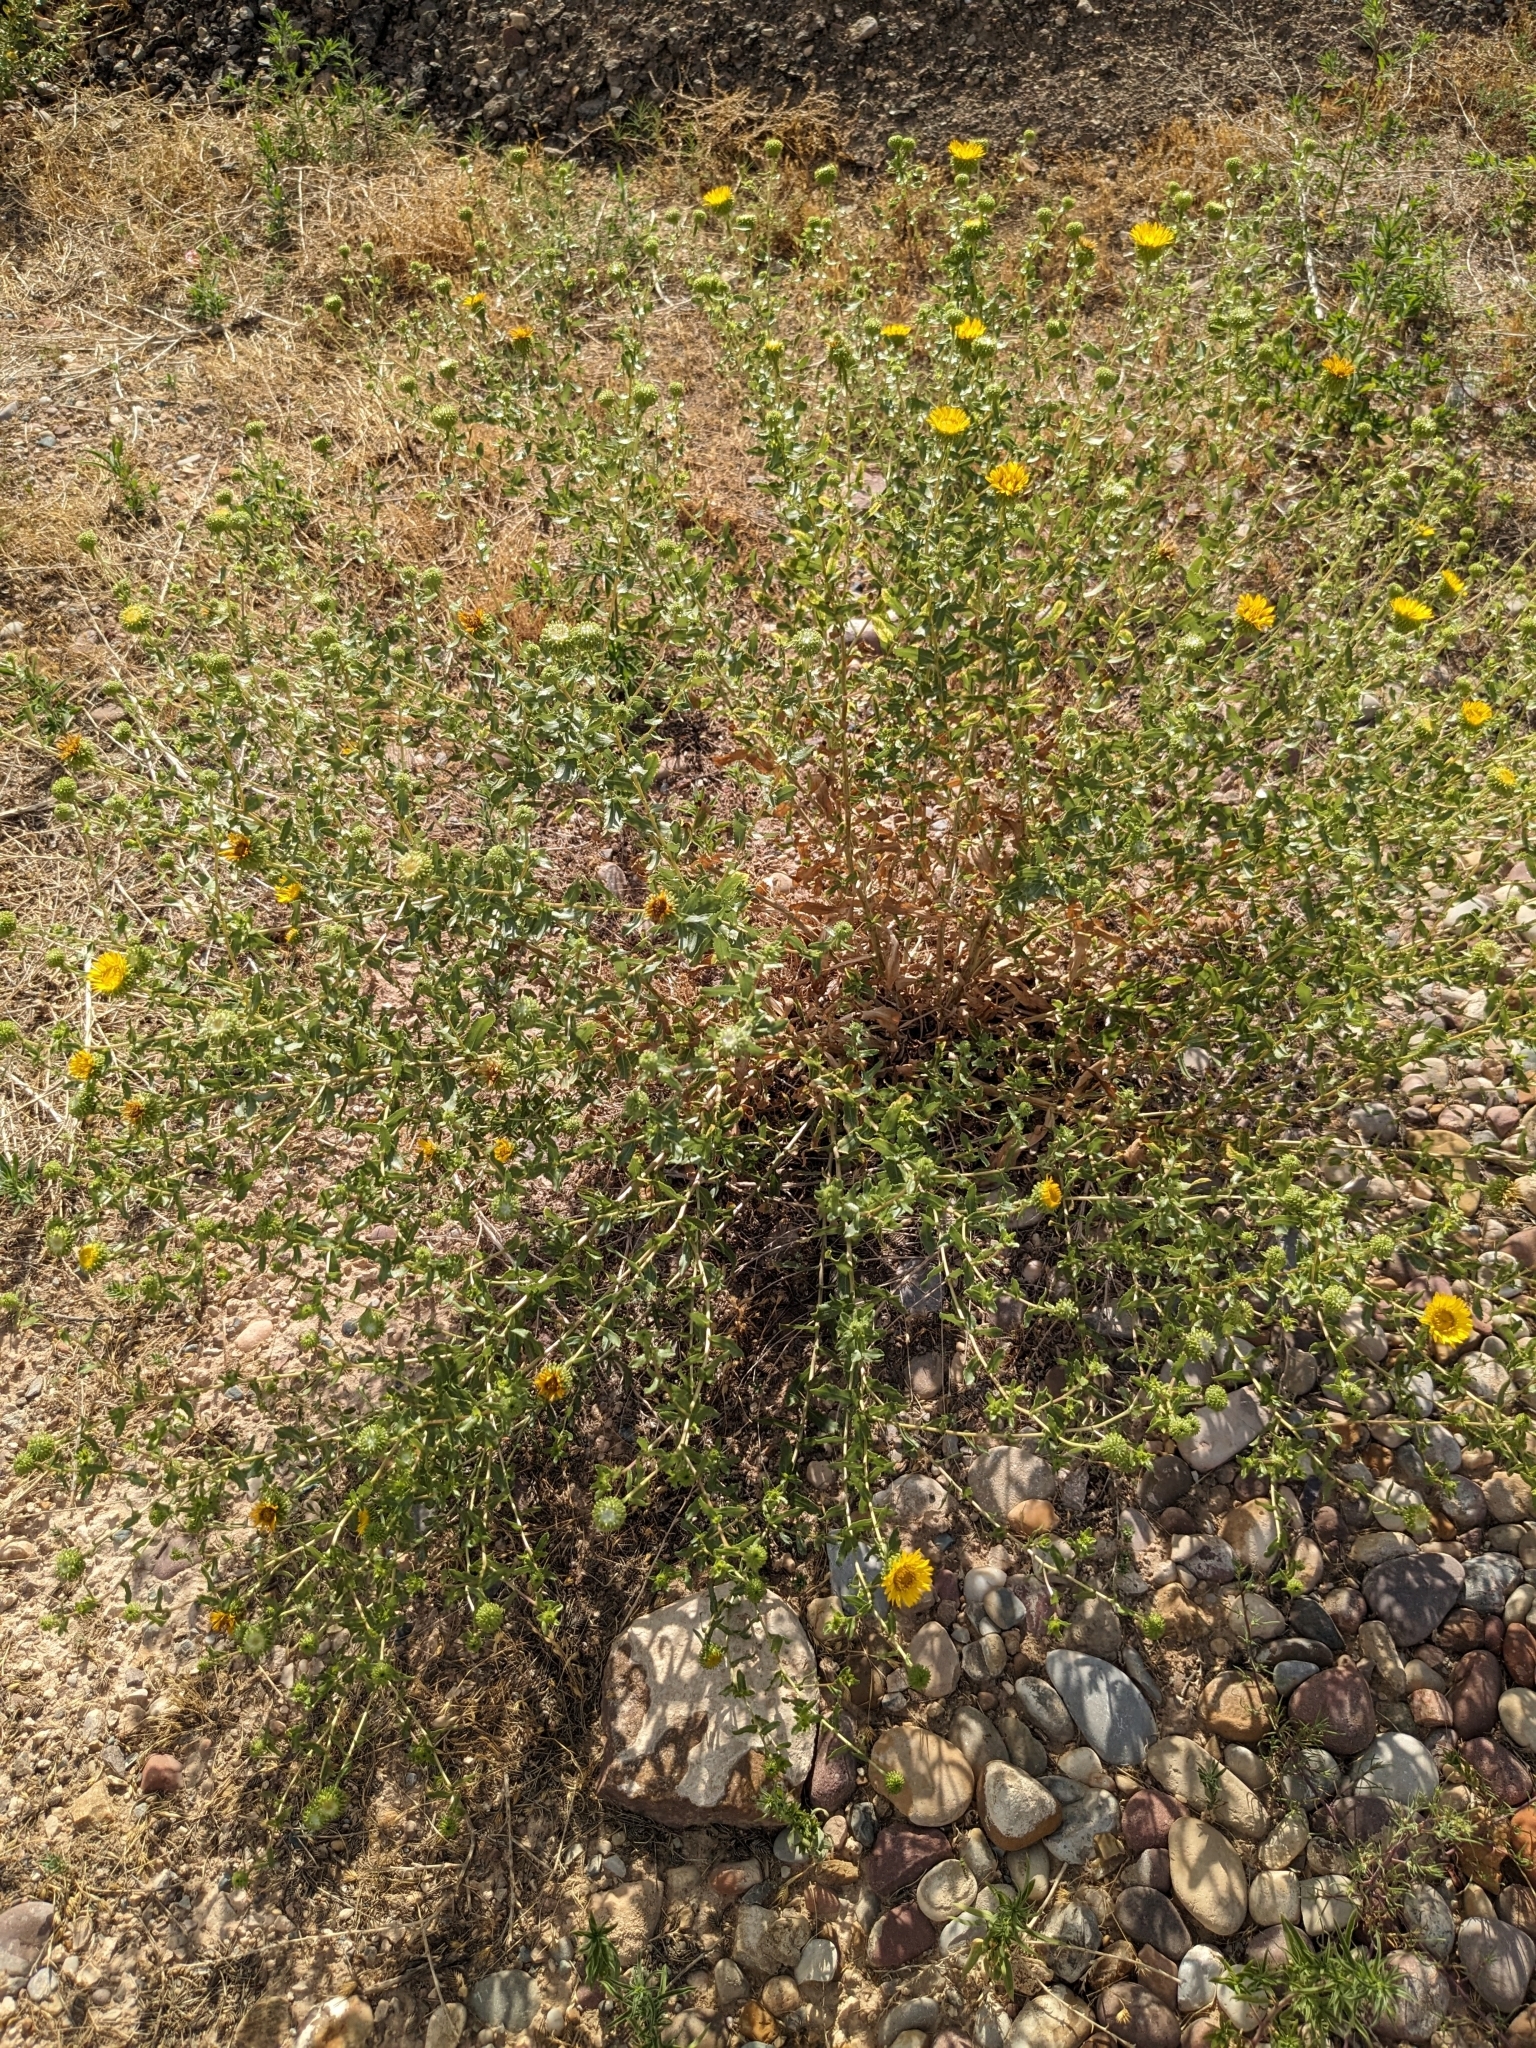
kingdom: Plantae
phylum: Tracheophyta
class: Magnoliopsida
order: Asterales
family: Asteraceae
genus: Grindelia
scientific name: Grindelia squarrosa
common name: Curly-cup gumweed
